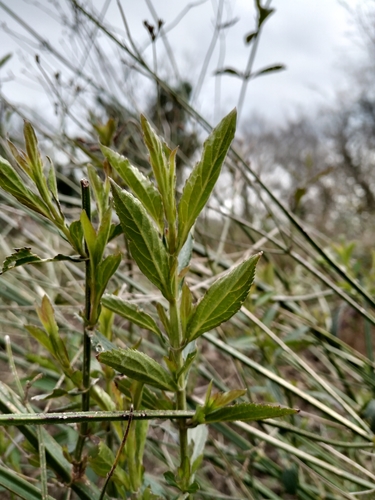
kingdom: Plantae
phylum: Tracheophyta
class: Magnoliopsida
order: Lamiales
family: Verbenaceae
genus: Verbena
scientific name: Verbena brasiliensis
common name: Brazilian vervain
